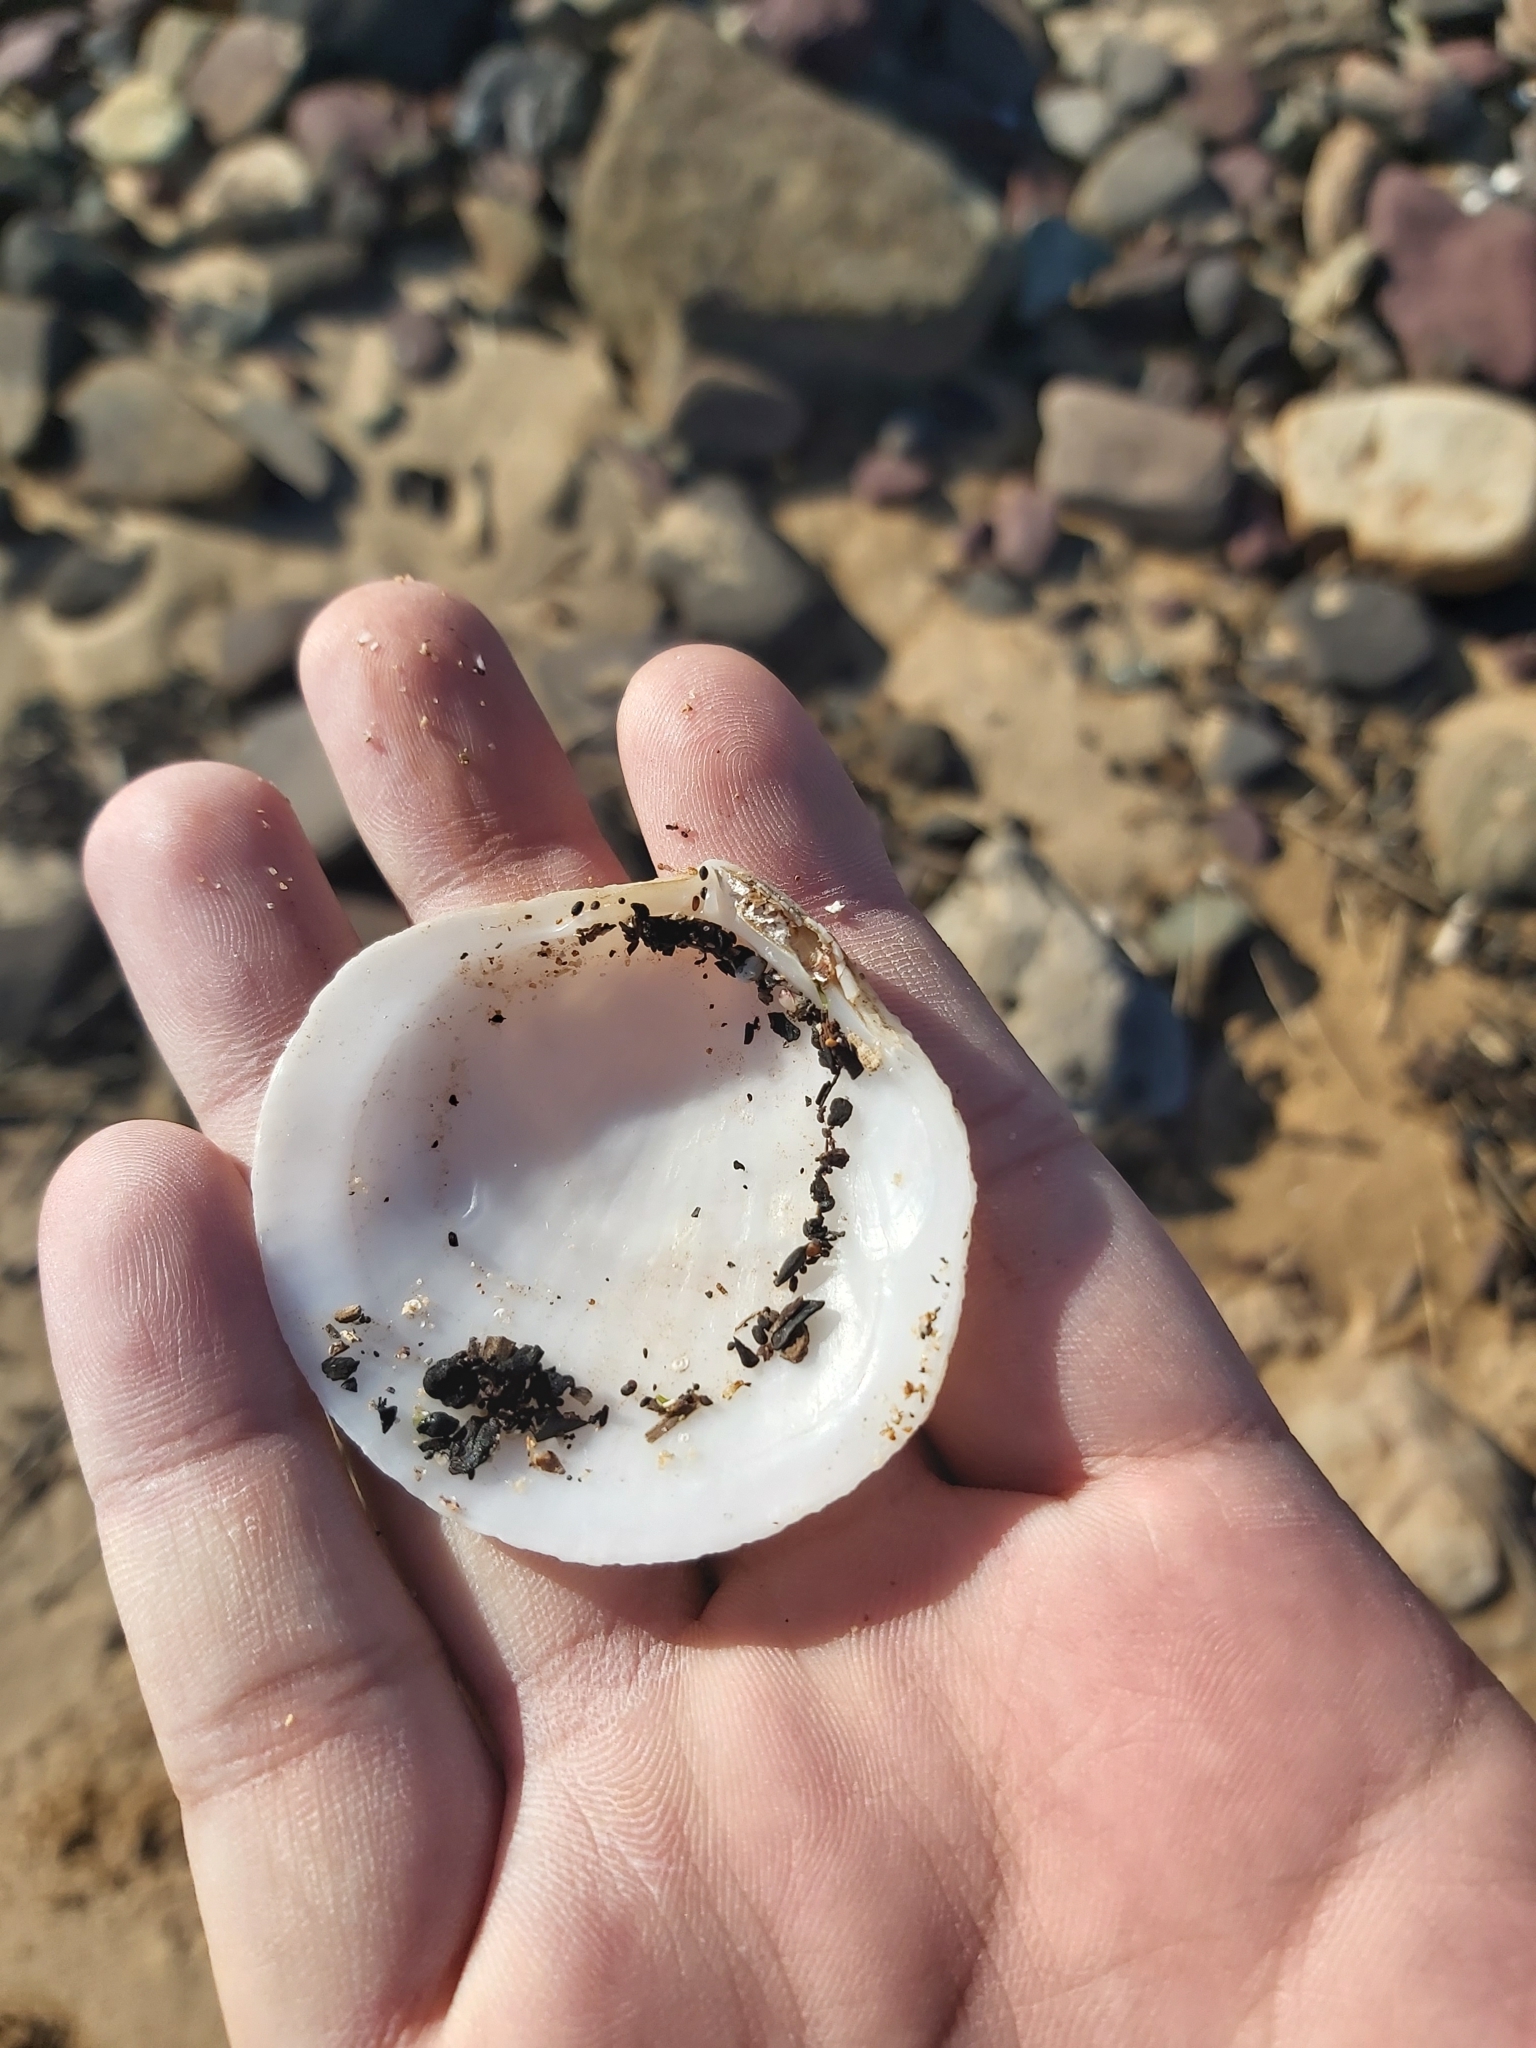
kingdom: Animalia
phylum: Mollusca
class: Bivalvia
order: Lucinida
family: Lucinidae
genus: Codakia
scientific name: Codakia rugifera
